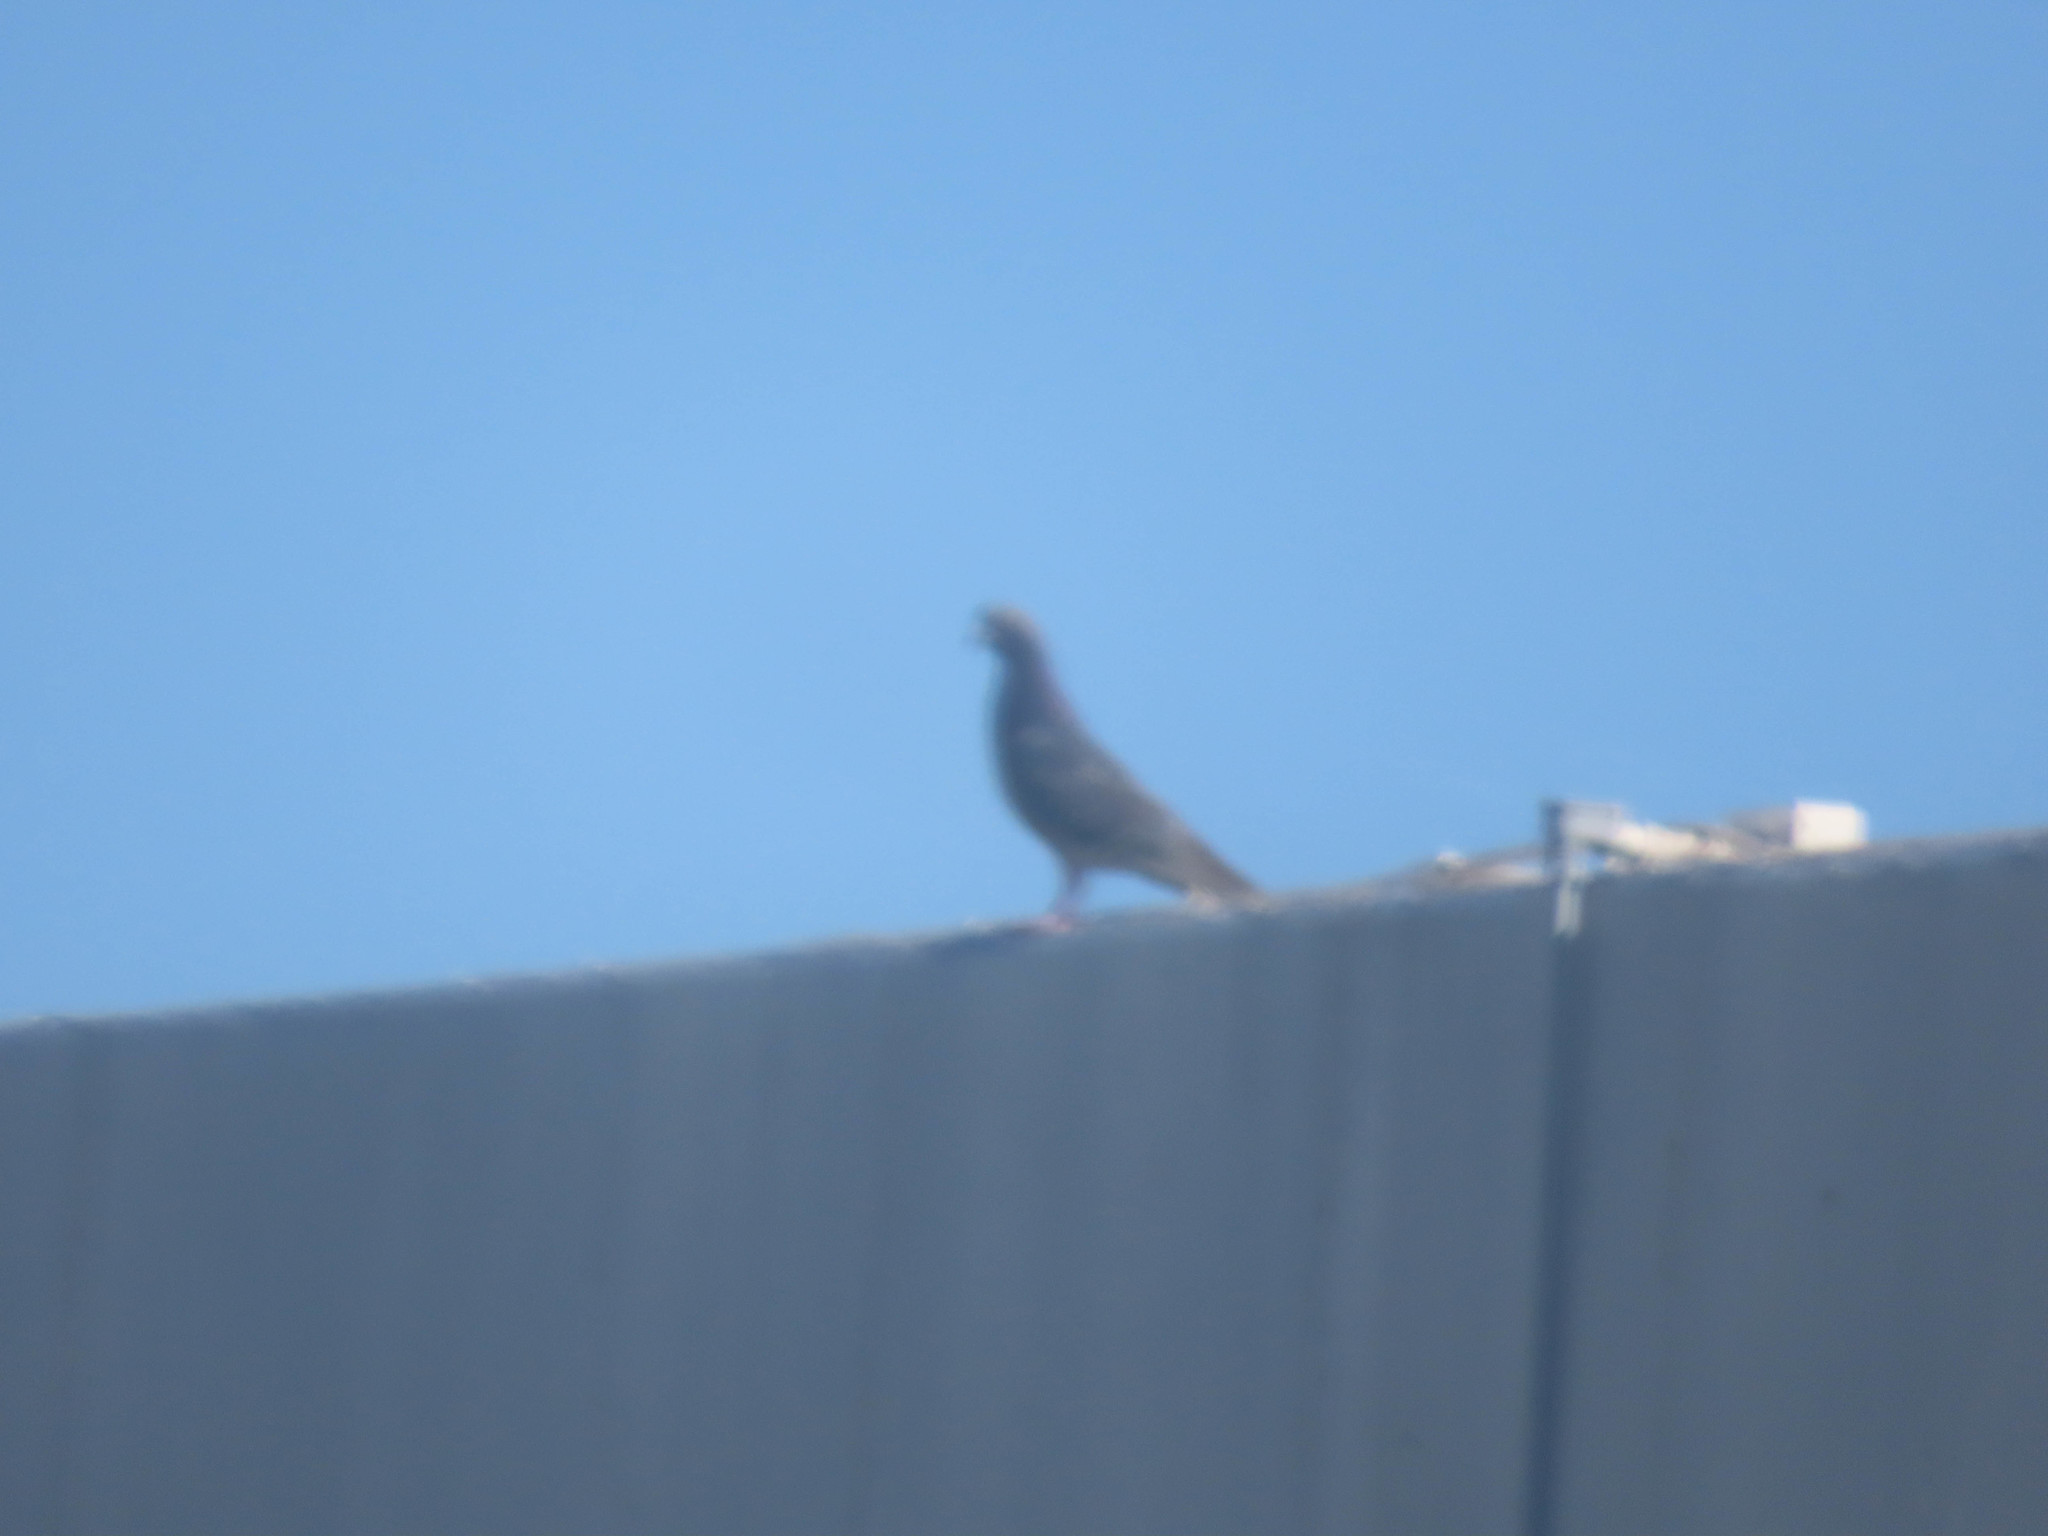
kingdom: Animalia
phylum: Chordata
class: Aves
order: Columbiformes
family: Columbidae
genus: Columba
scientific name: Columba livia
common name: Rock pigeon
